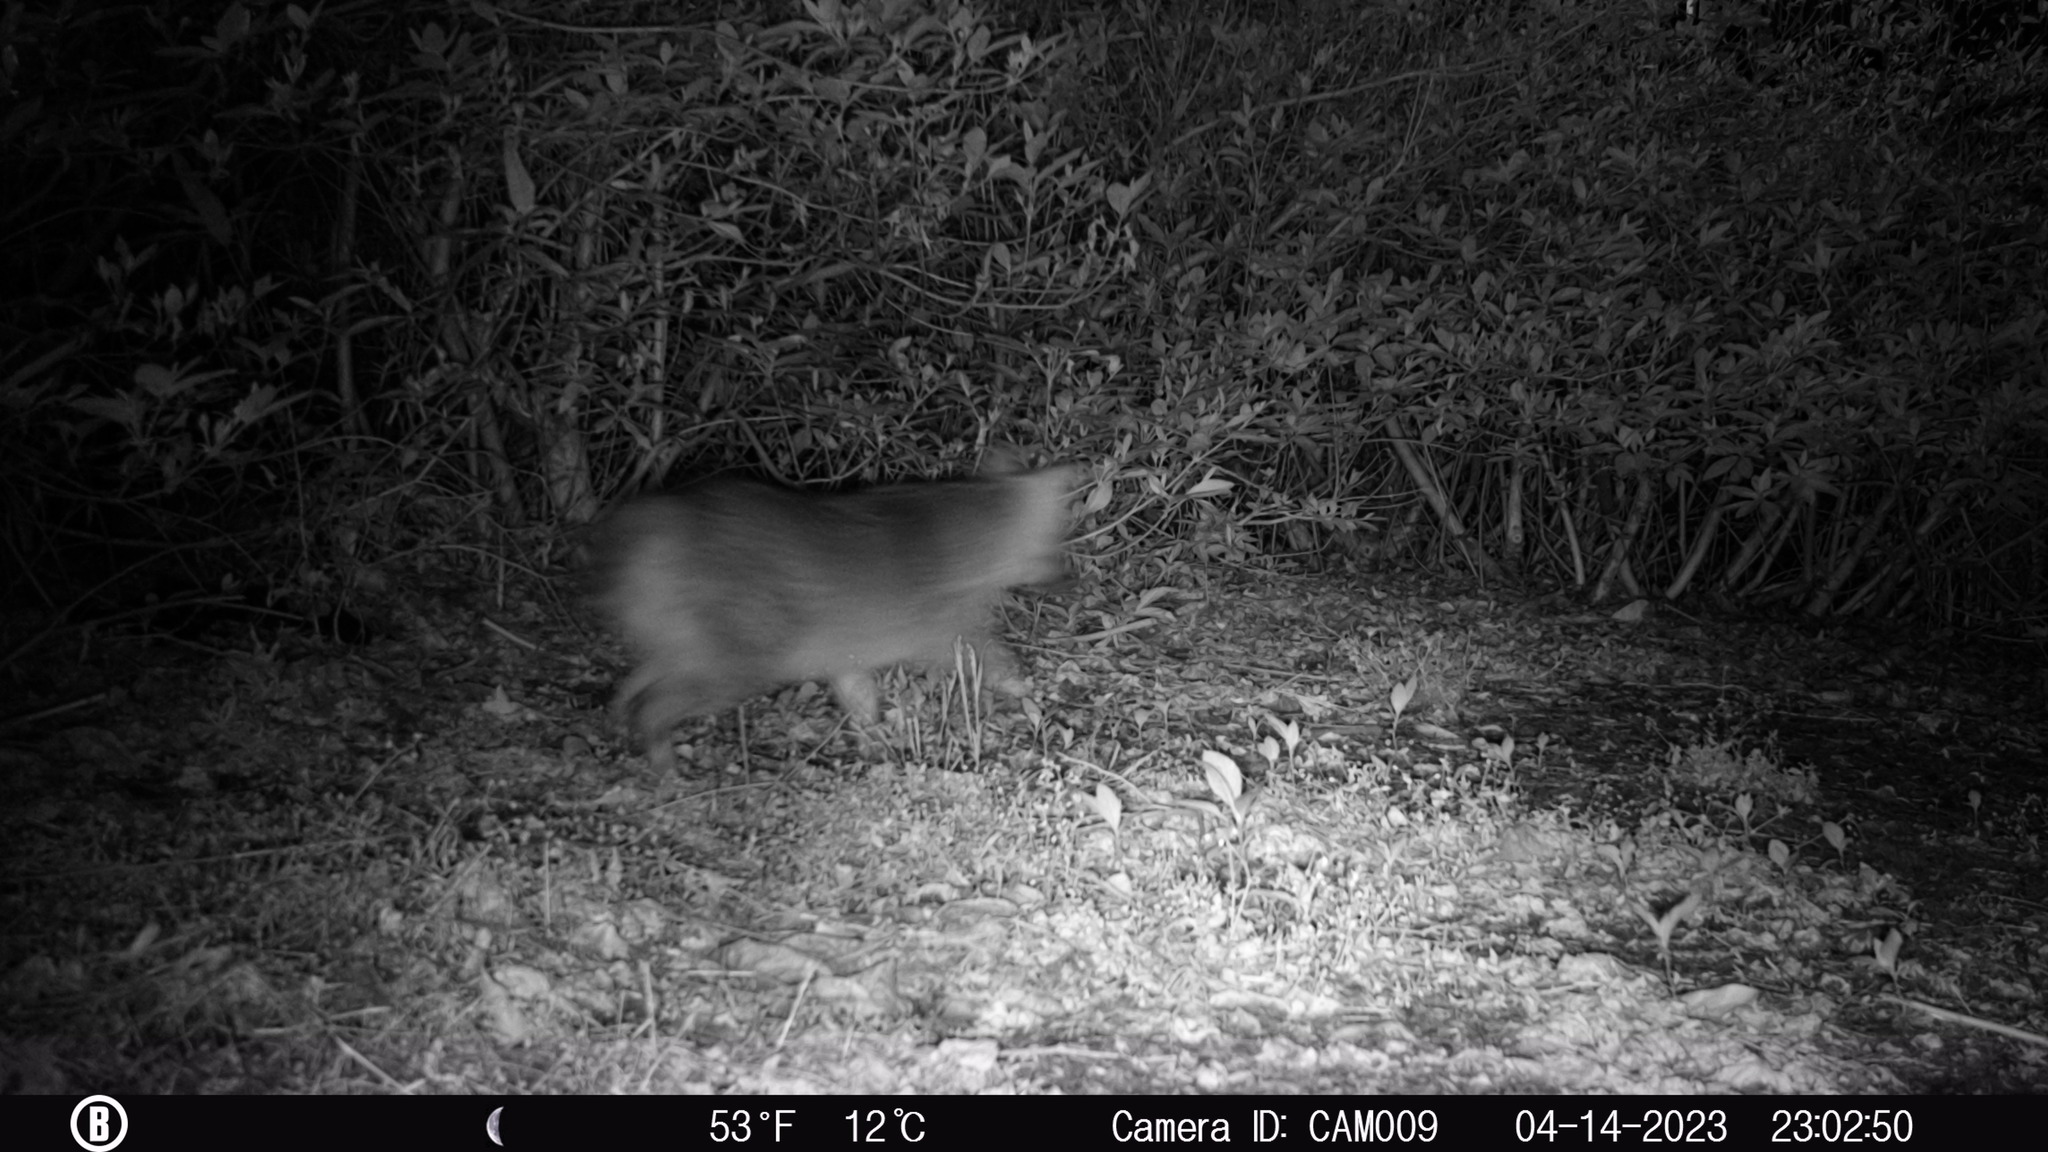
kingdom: Animalia
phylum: Chordata
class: Mammalia
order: Carnivora
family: Canidae
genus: Urocyon
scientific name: Urocyon cinereoargenteus
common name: Gray fox
